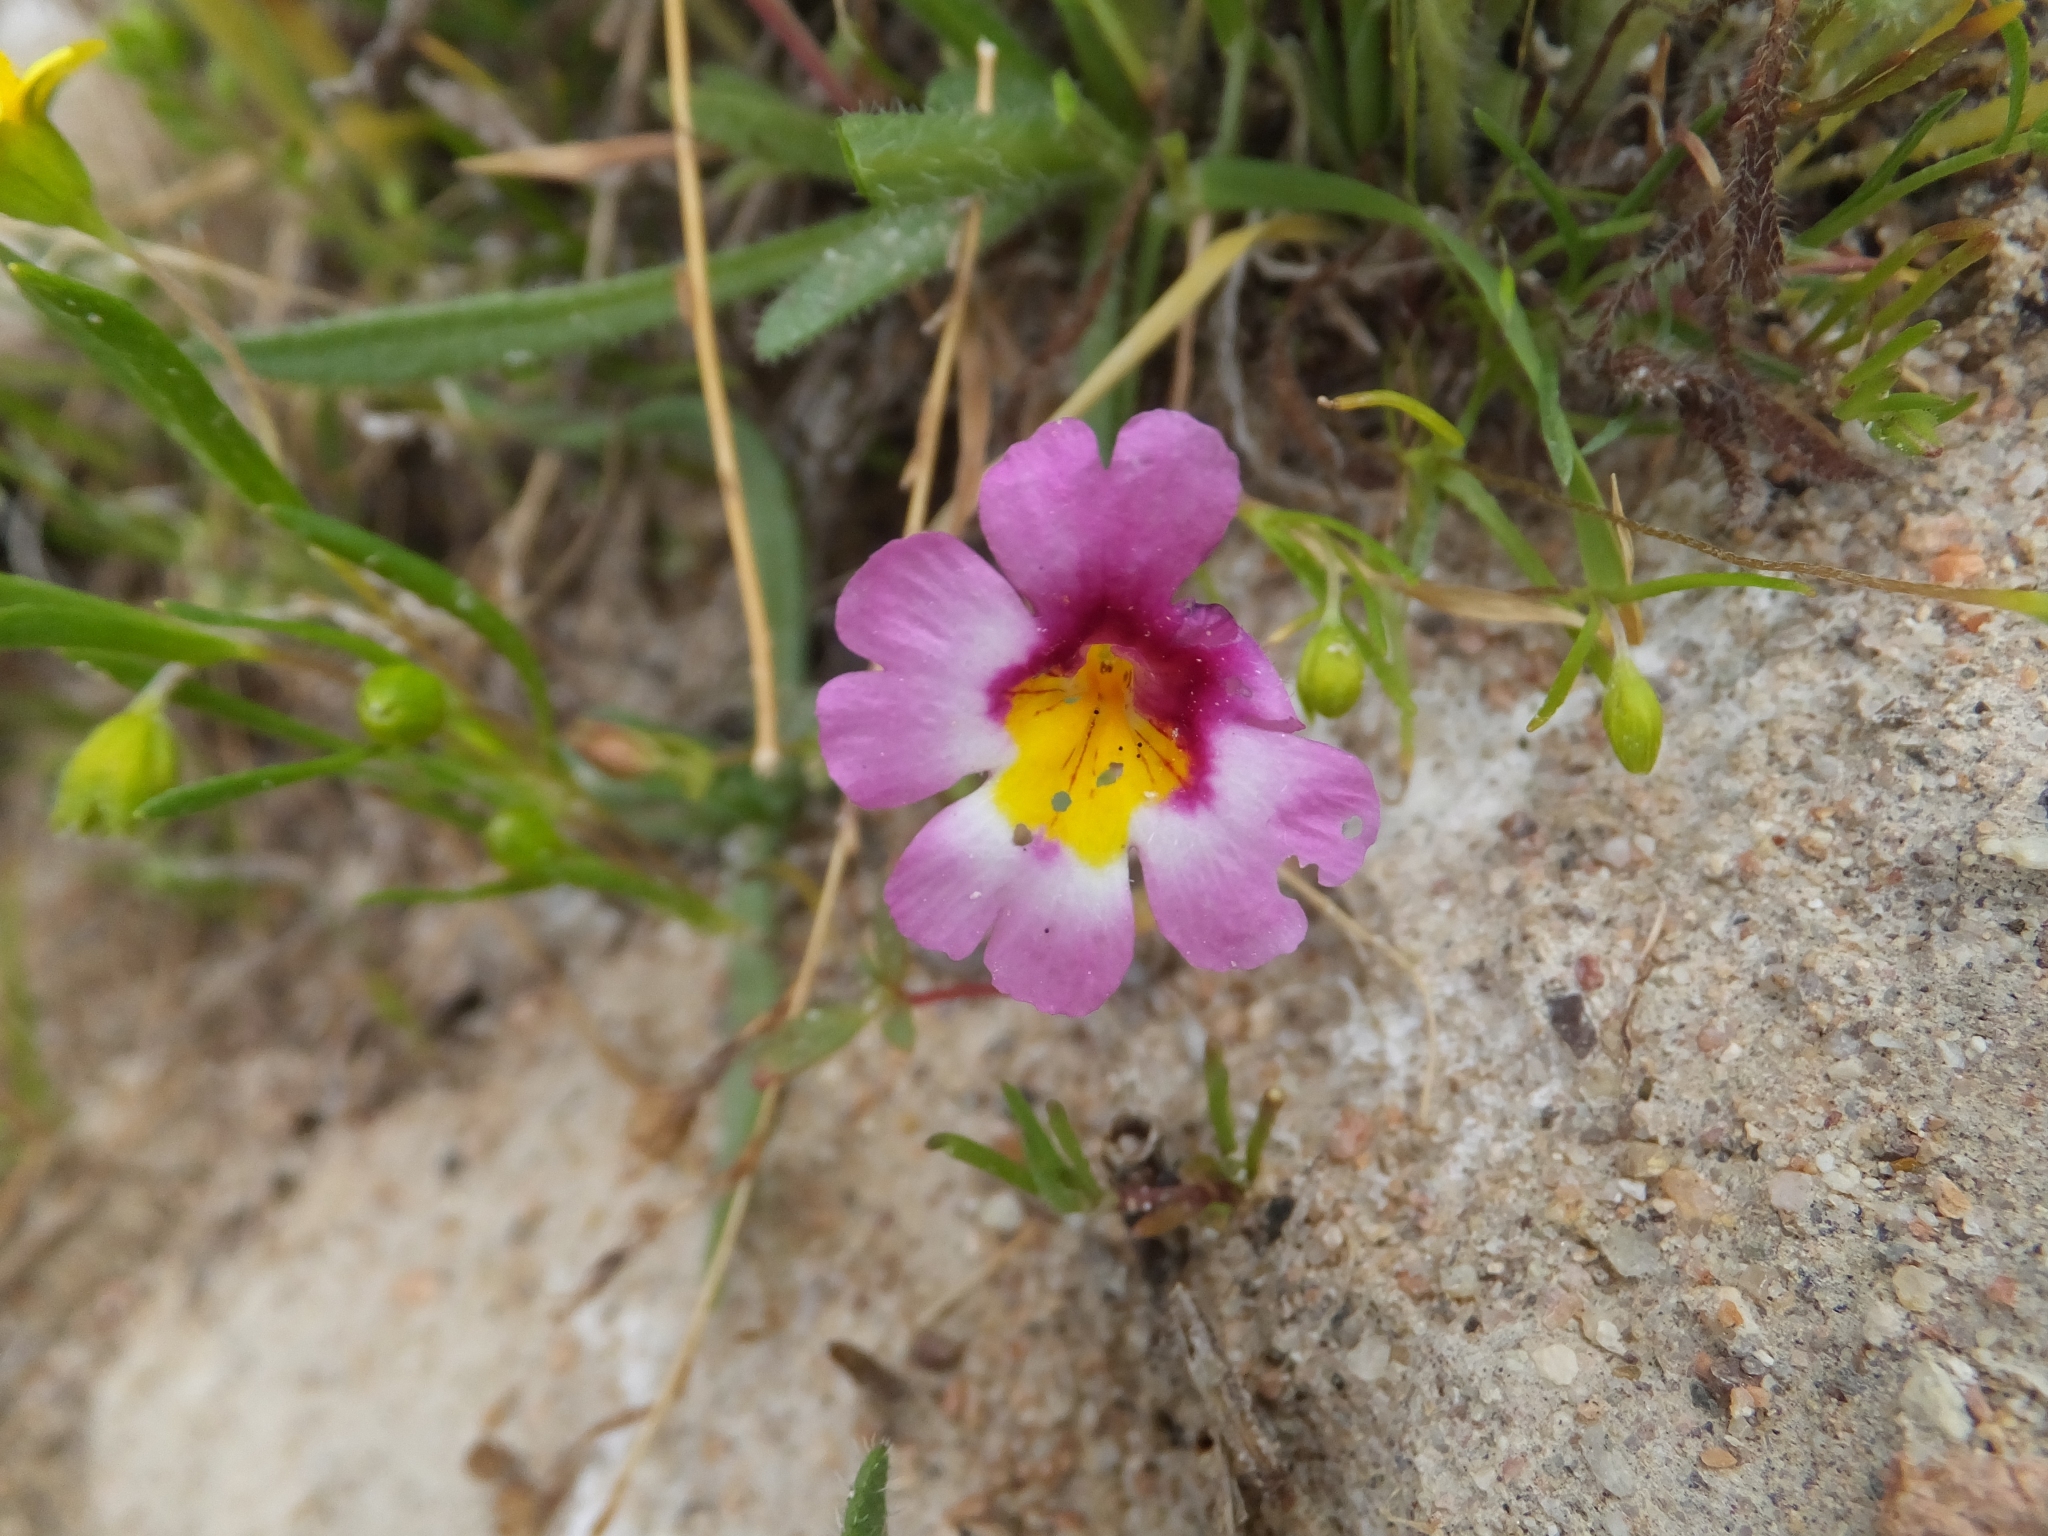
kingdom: Plantae
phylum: Tracheophyta
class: Magnoliopsida
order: Lamiales
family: Phrymaceae
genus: Erythranthe
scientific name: Erythranthe rhodopetra
